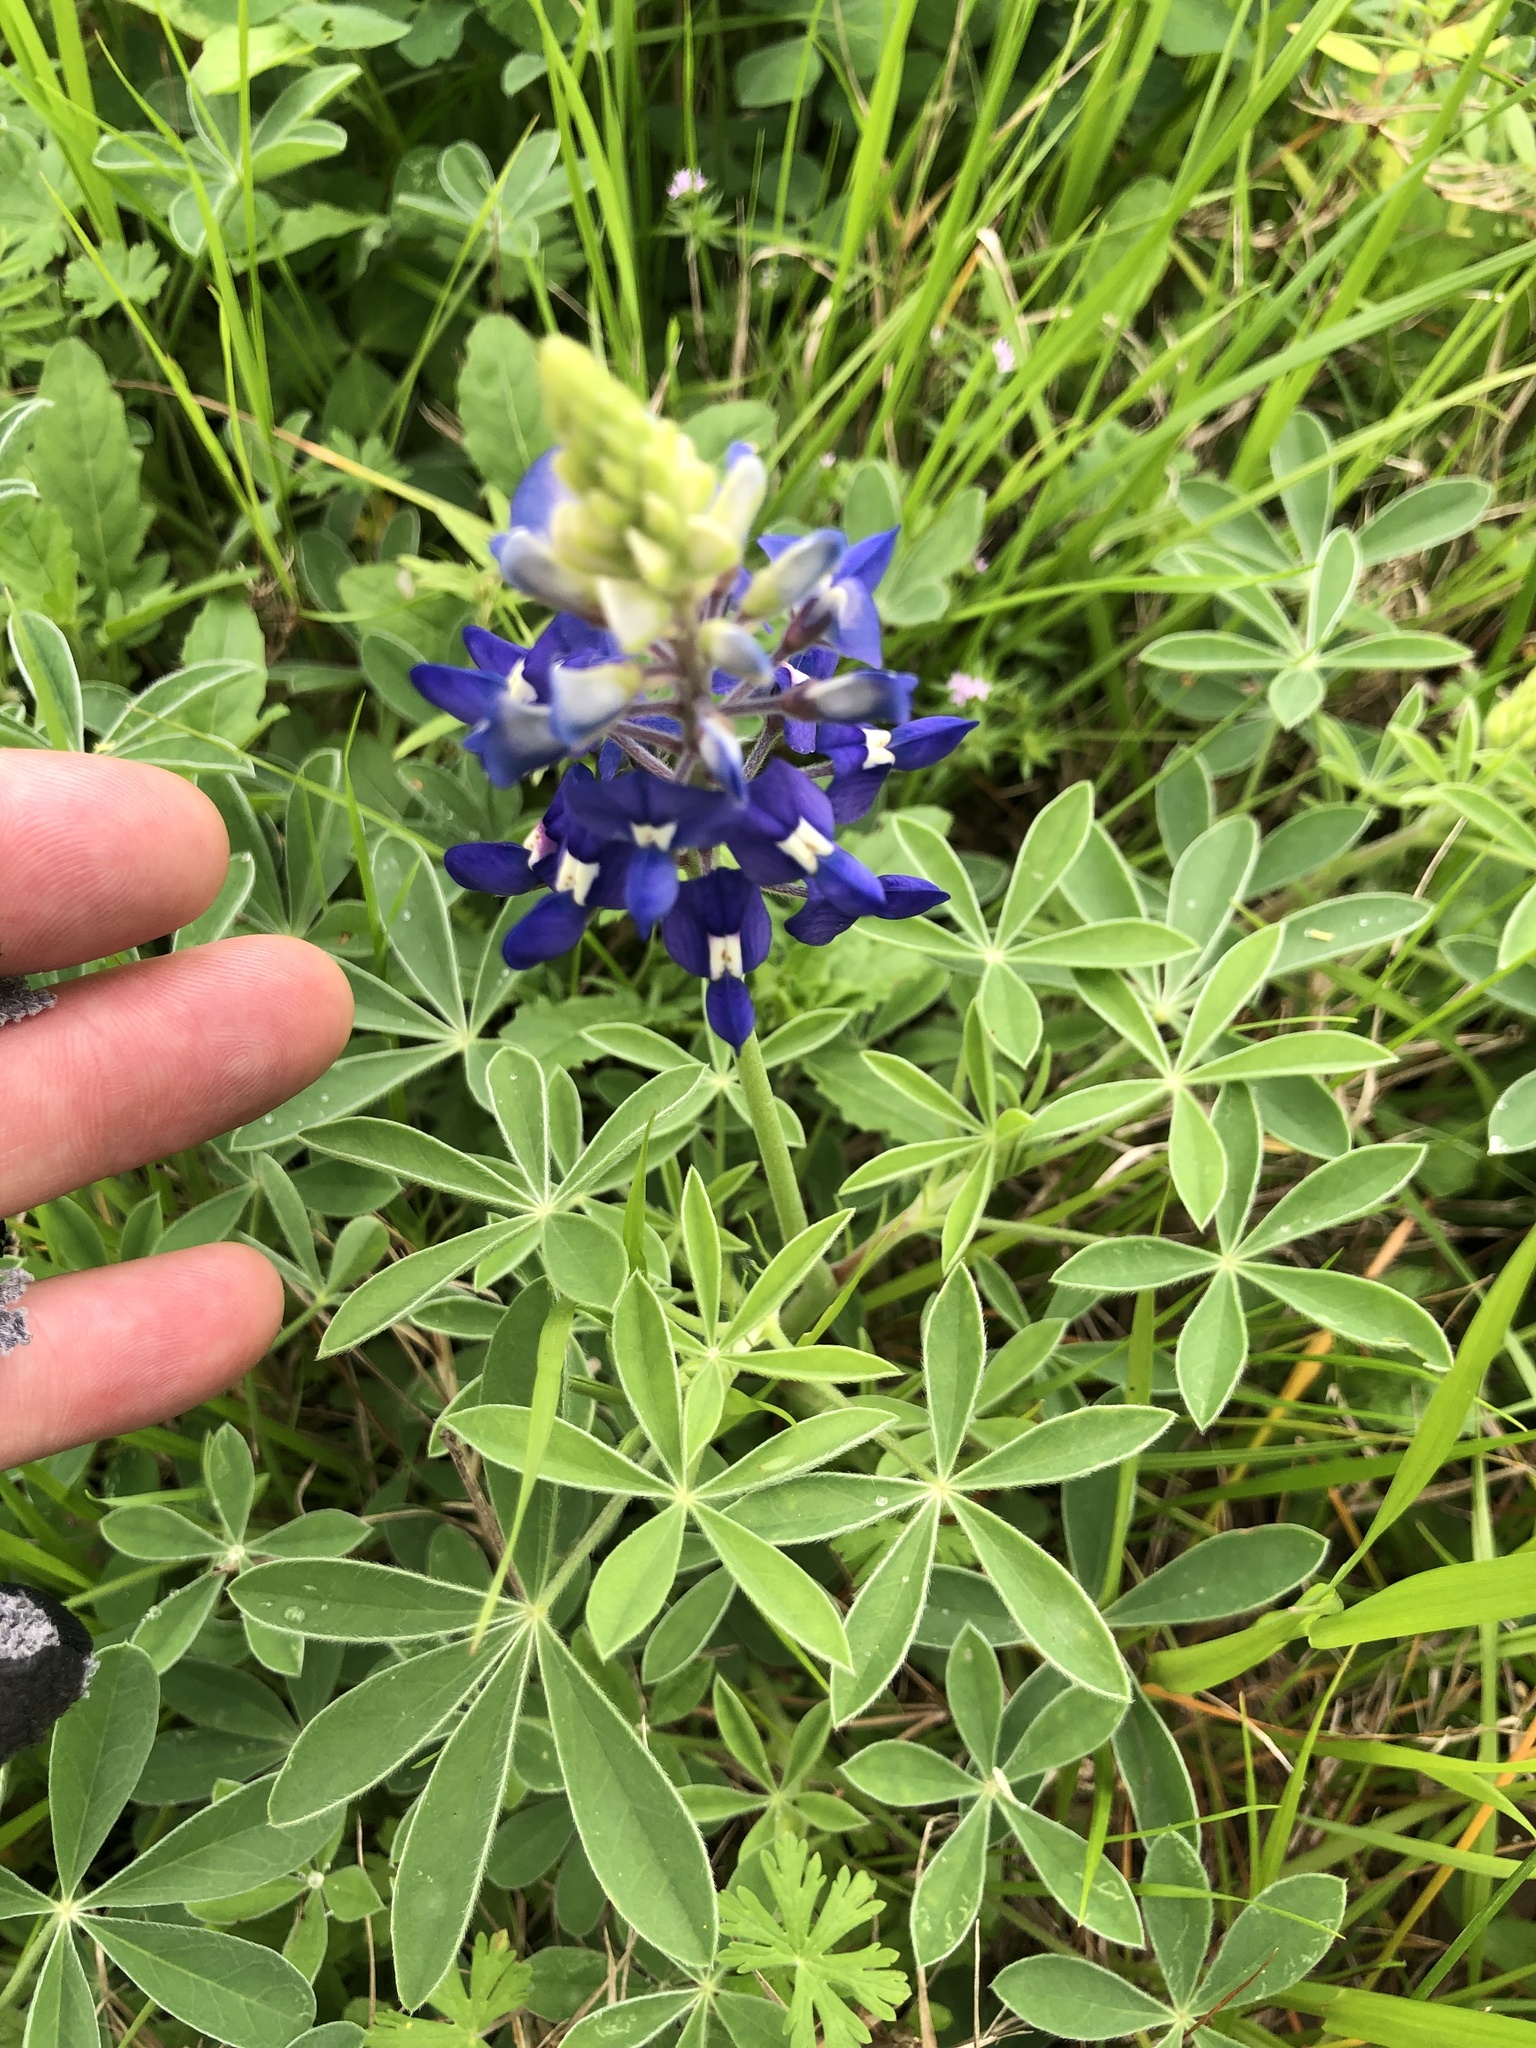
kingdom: Plantae
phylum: Tracheophyta
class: Magnoliopsida
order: Fabales
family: Fabaceae
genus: Lupinus
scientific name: Lupinus texensis
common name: Texas bluebonnet
